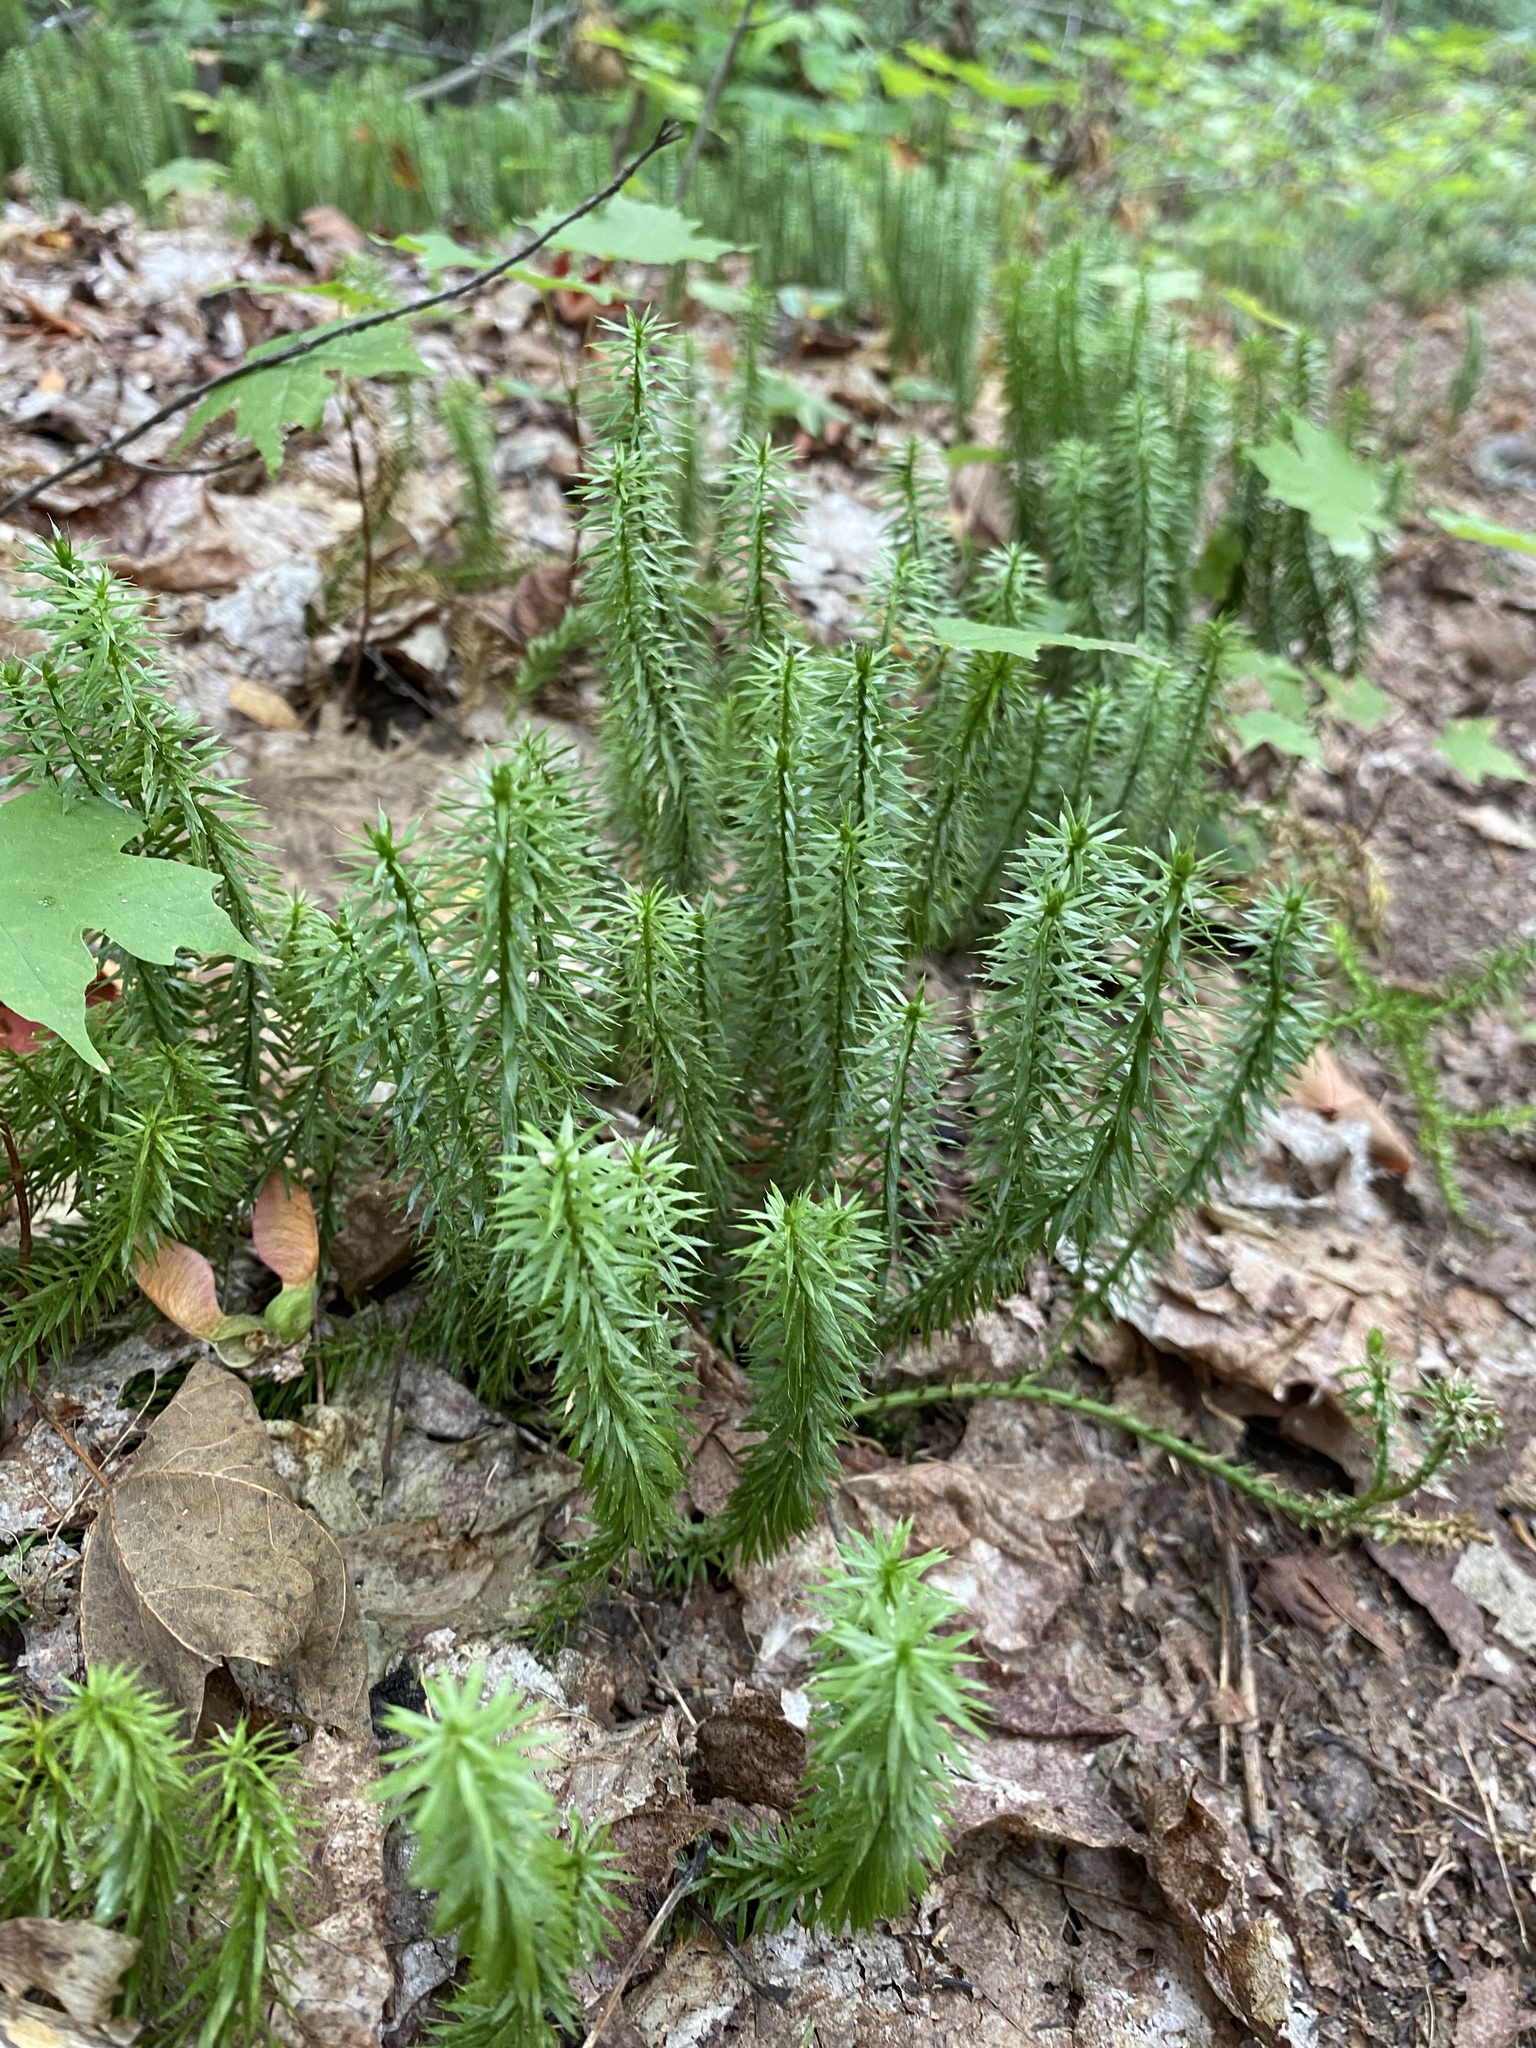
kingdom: Plantae
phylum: Tracheophyta
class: Lycopodiopsida
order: Lycopodiales
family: Lycopodiaceae
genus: Spinulum
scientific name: Spinulum annotinum
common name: Interrupted club-moss
